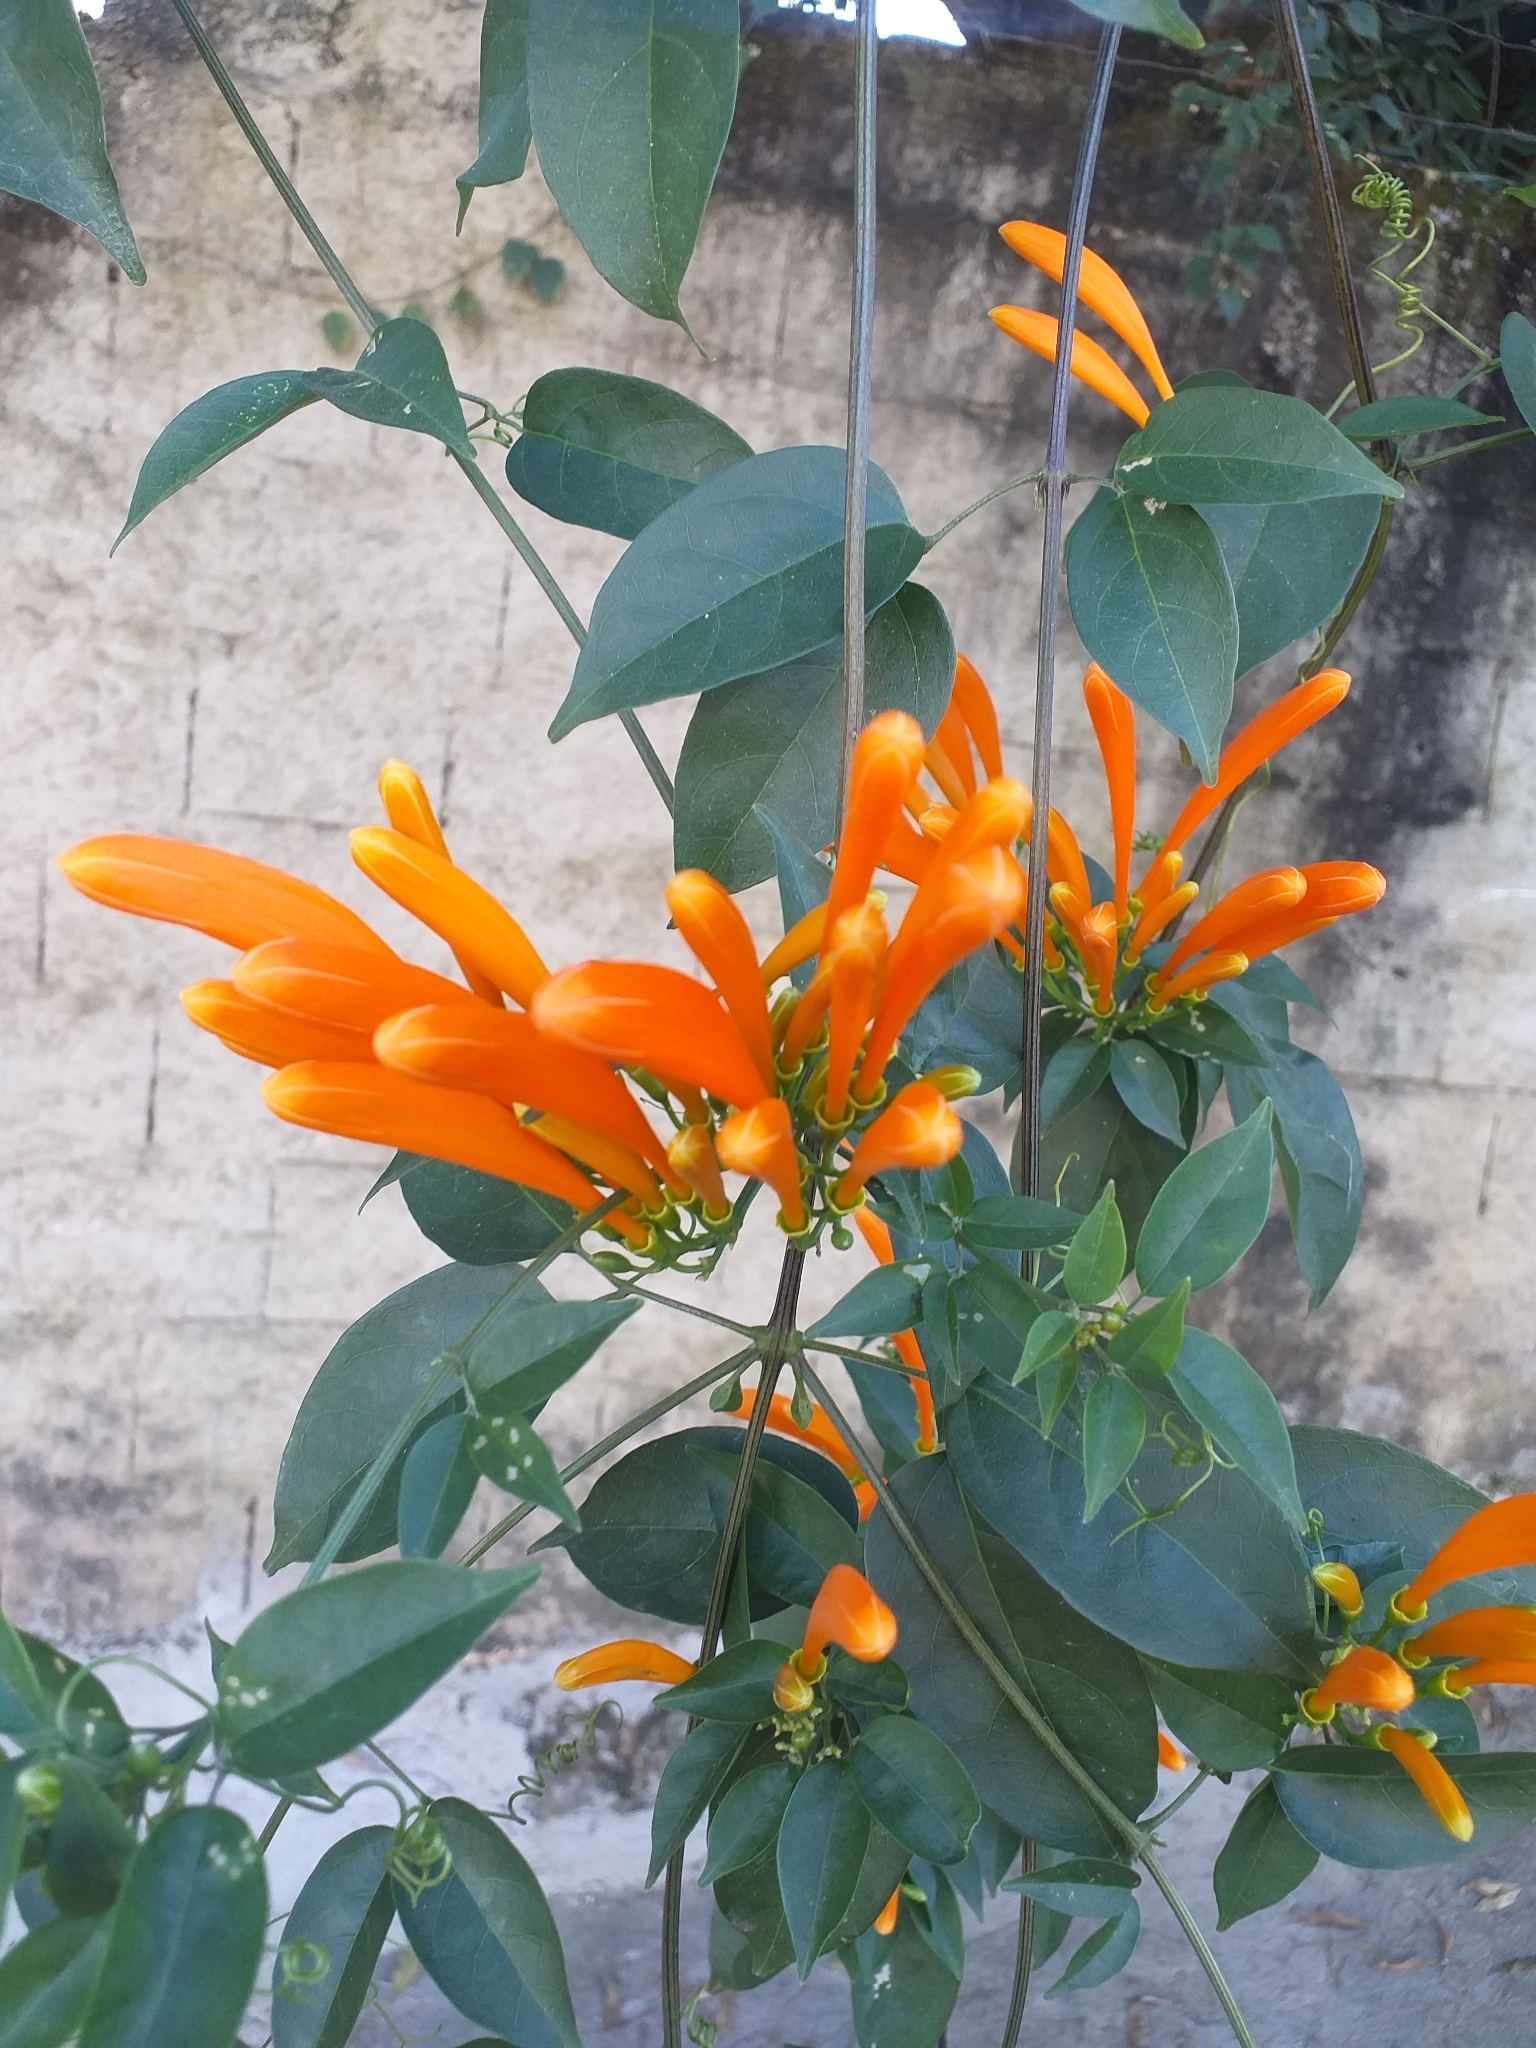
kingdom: Plantae
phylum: Tracheophyta
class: Magnoliopsida
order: Lamiales
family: Bignoniaceae
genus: Pyrostegia
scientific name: Pyrostegia venusta
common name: Flamevine
